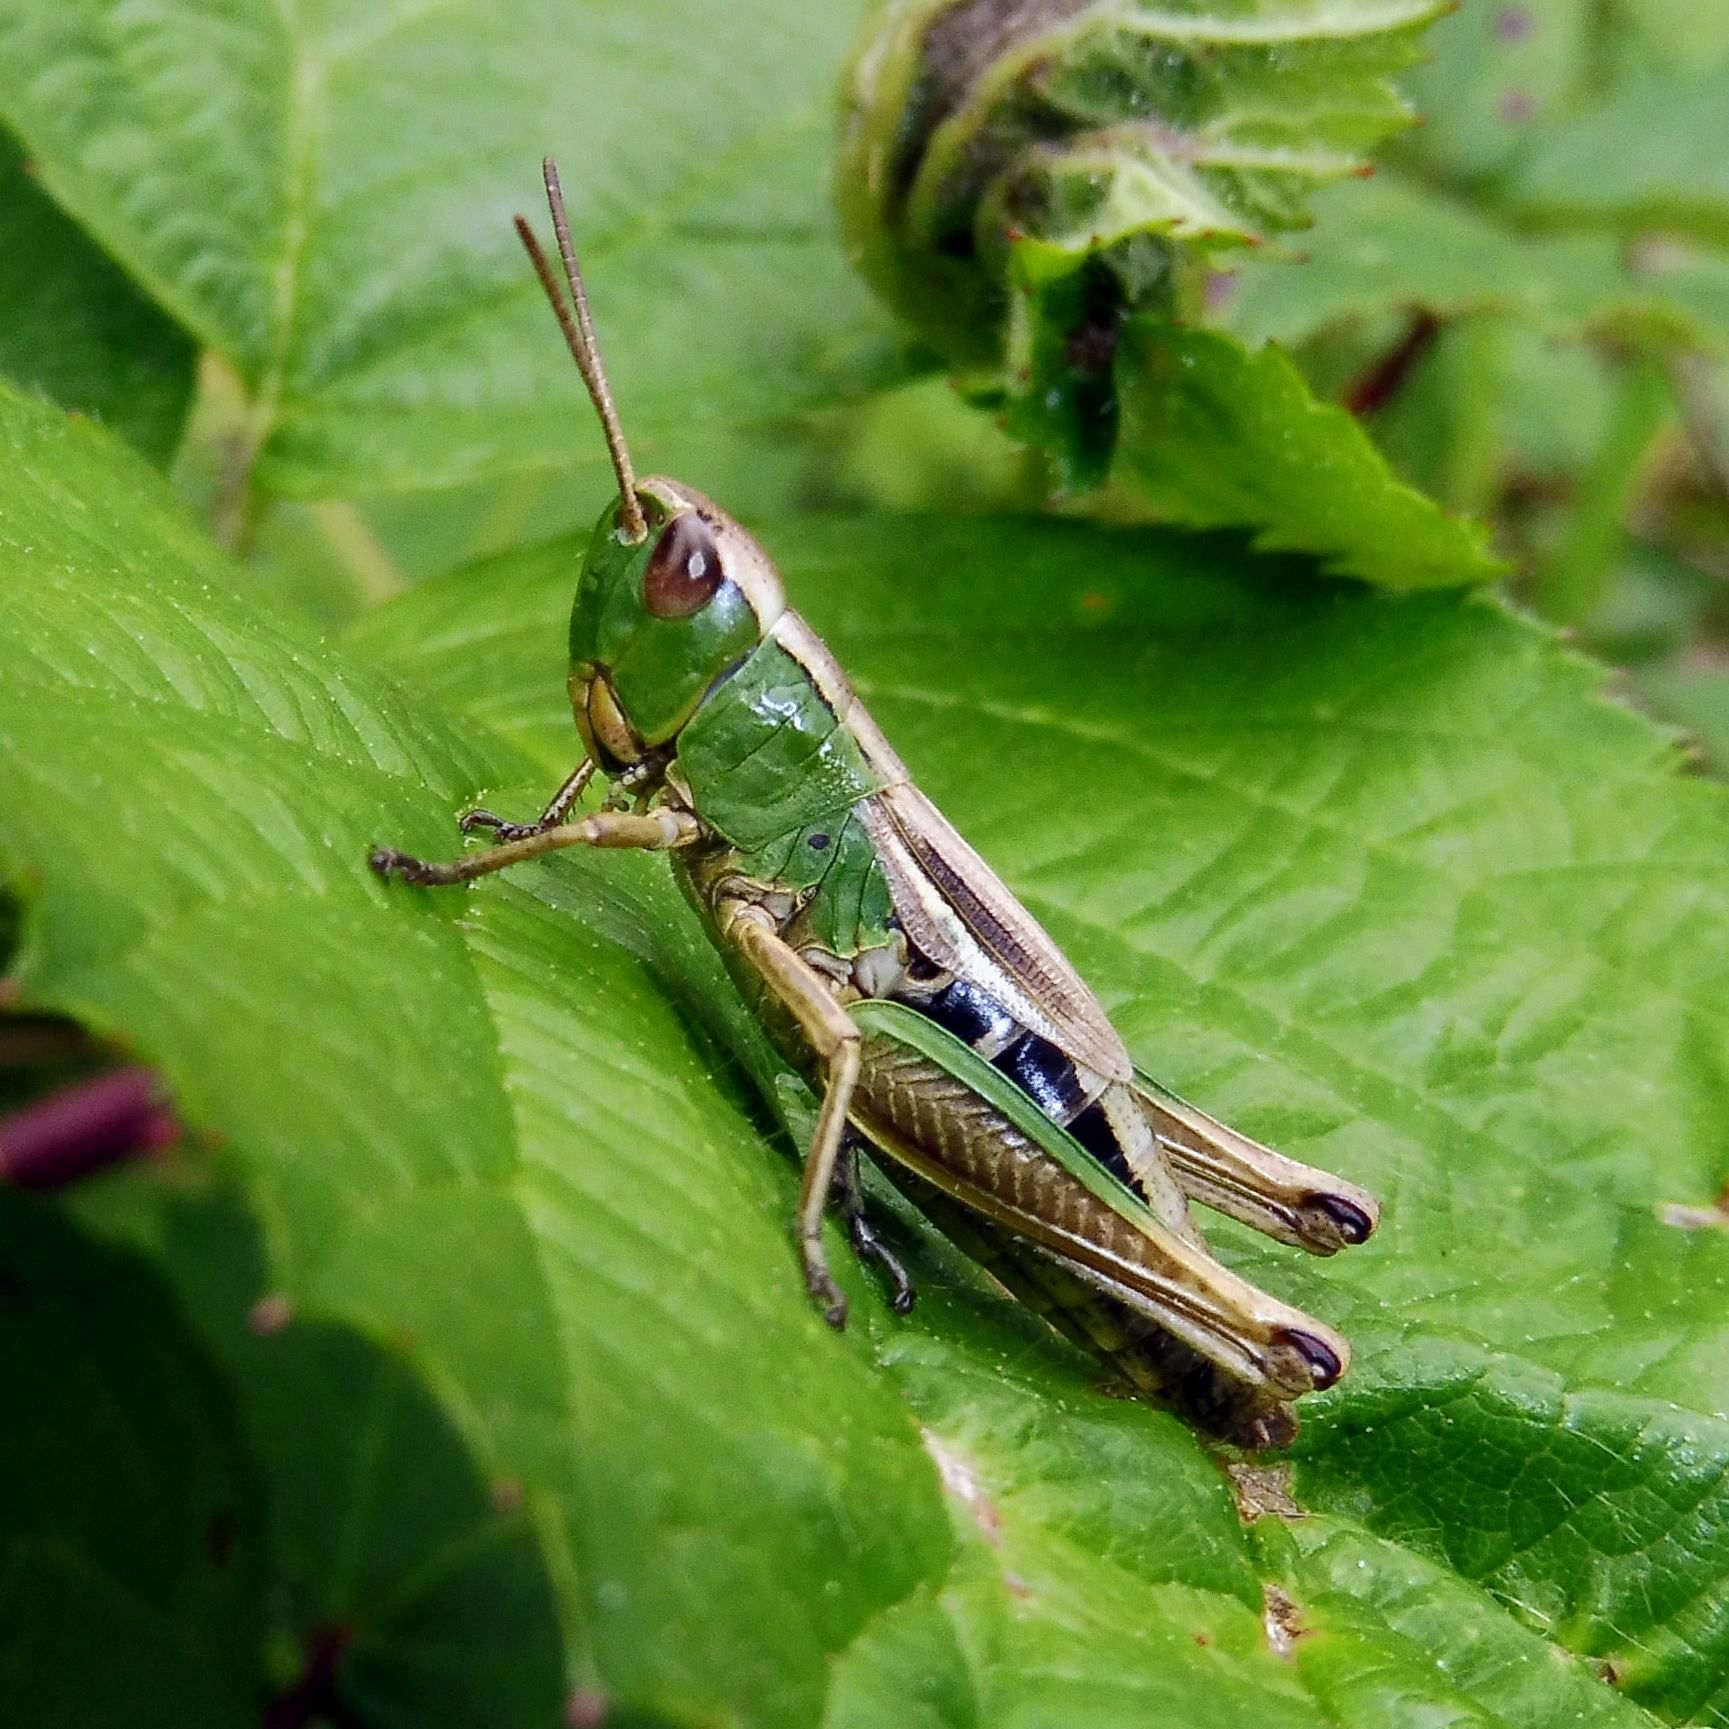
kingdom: Animalia
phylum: Arthropoda
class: Insecta
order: Orthoptera
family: Acrididae
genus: Pseudochorthippus
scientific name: Pseudochorthippus parallelus
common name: Meadow grasshopper
